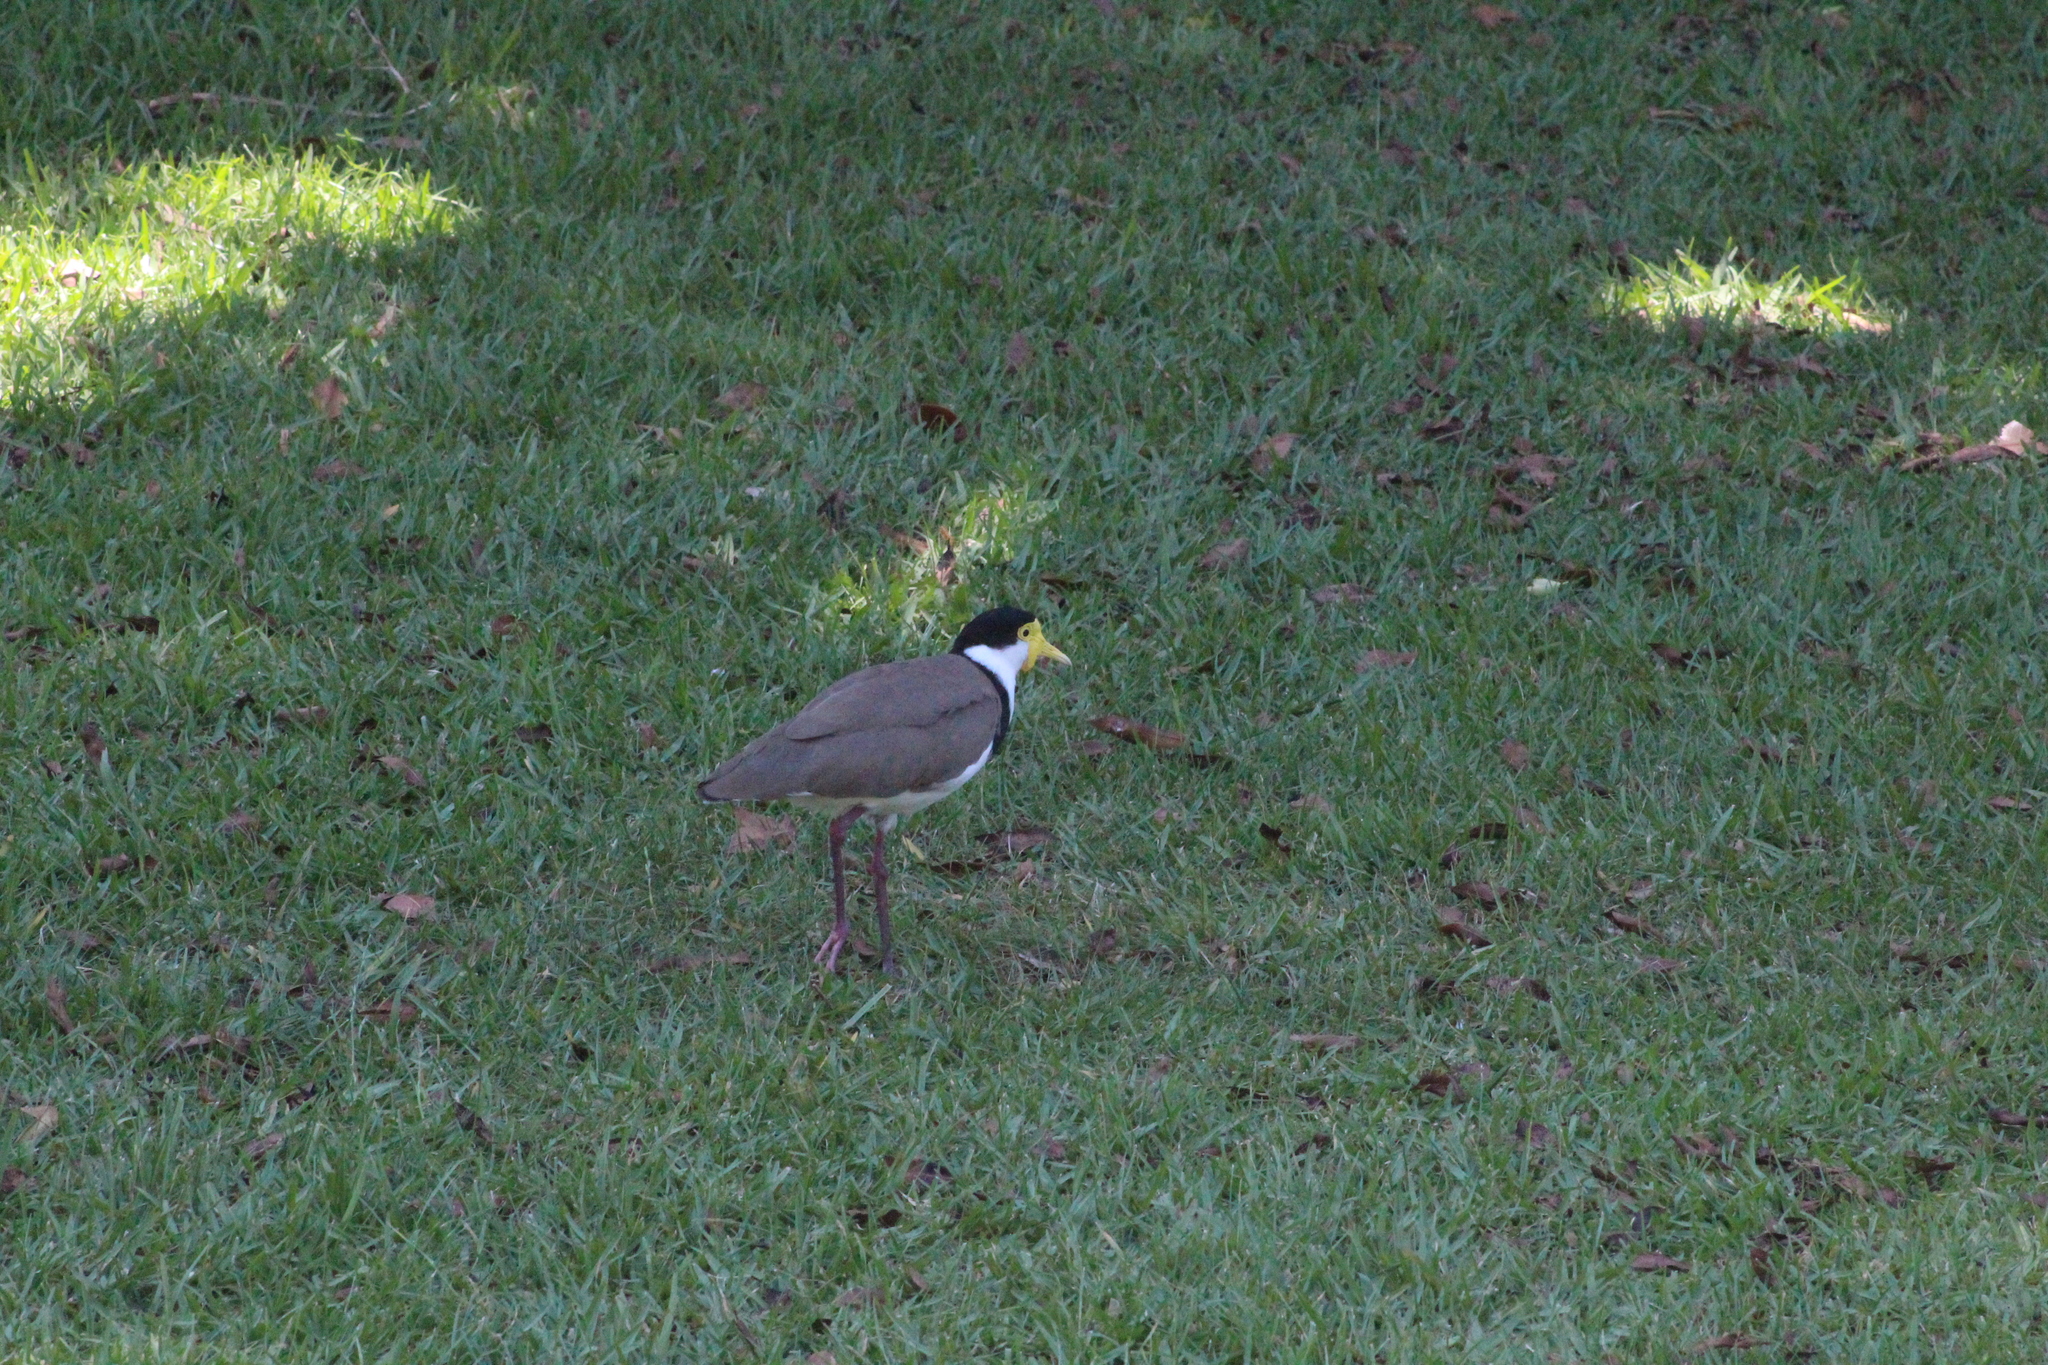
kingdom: Animalia
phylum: Chordata
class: Aves
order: Charadriiformes
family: Charadriidae
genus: Vanellus
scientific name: Vanellus miles
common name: Masked lapwing
